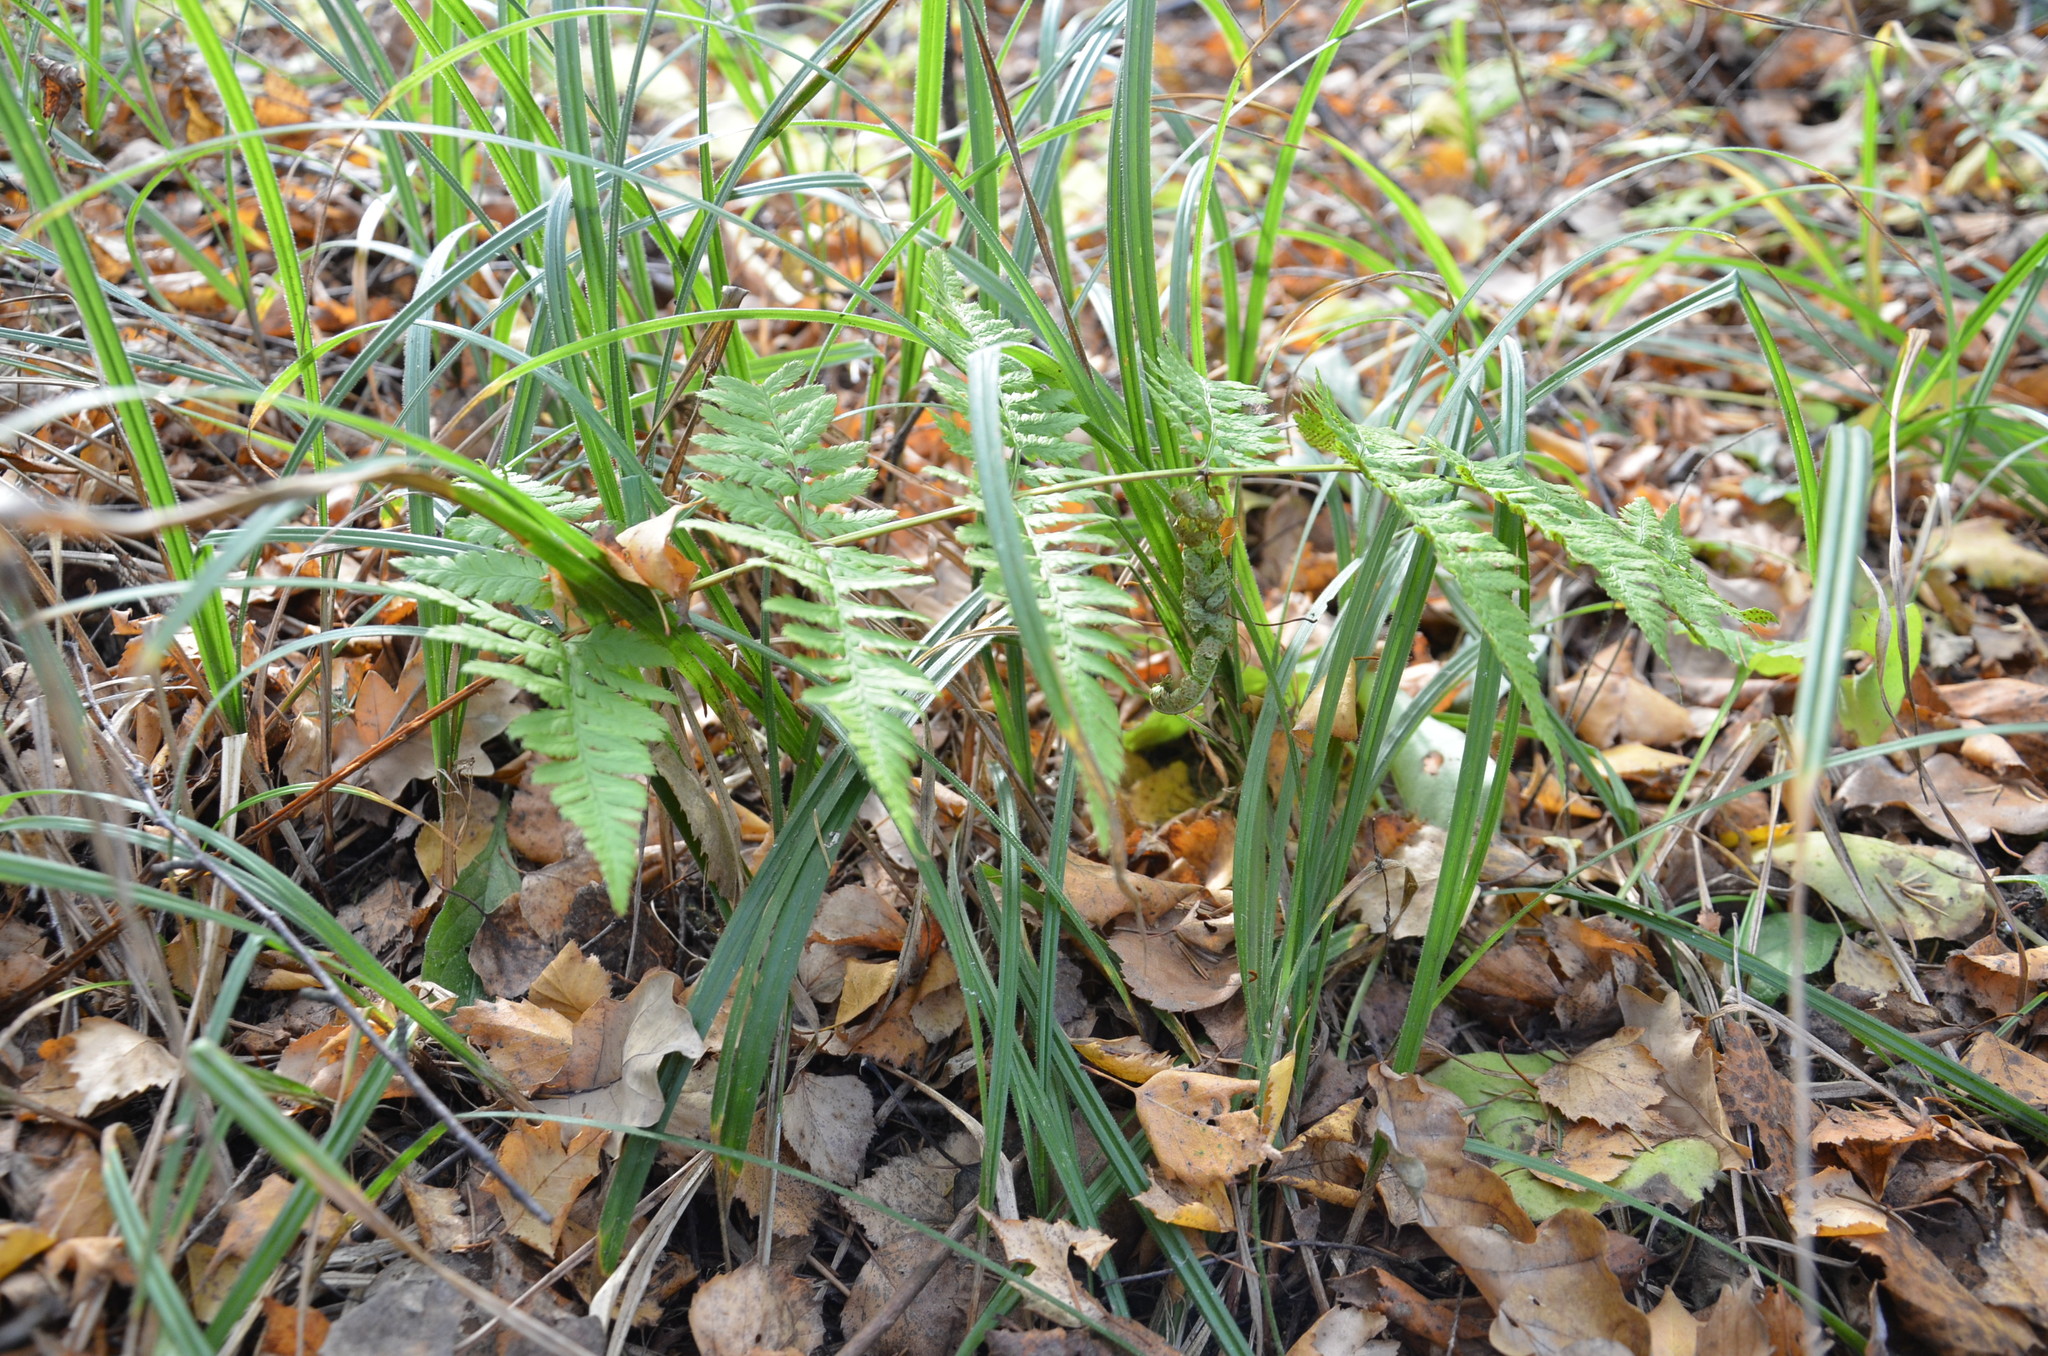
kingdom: Plantae
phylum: Tracheophyta
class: Polypodiopsida
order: Polypodiales
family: Dryopteridaceae
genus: Dryopteris
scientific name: Dryopteris carthusiana
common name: Narrow buckler-fern
